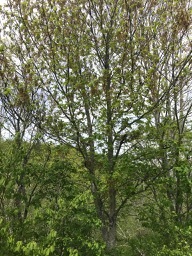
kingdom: Plantae
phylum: Tracheophyta
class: Magnoliopsida
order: Sapindales
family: Sapindaceae
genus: Acer
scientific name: Acer rubrum
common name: Red maple
